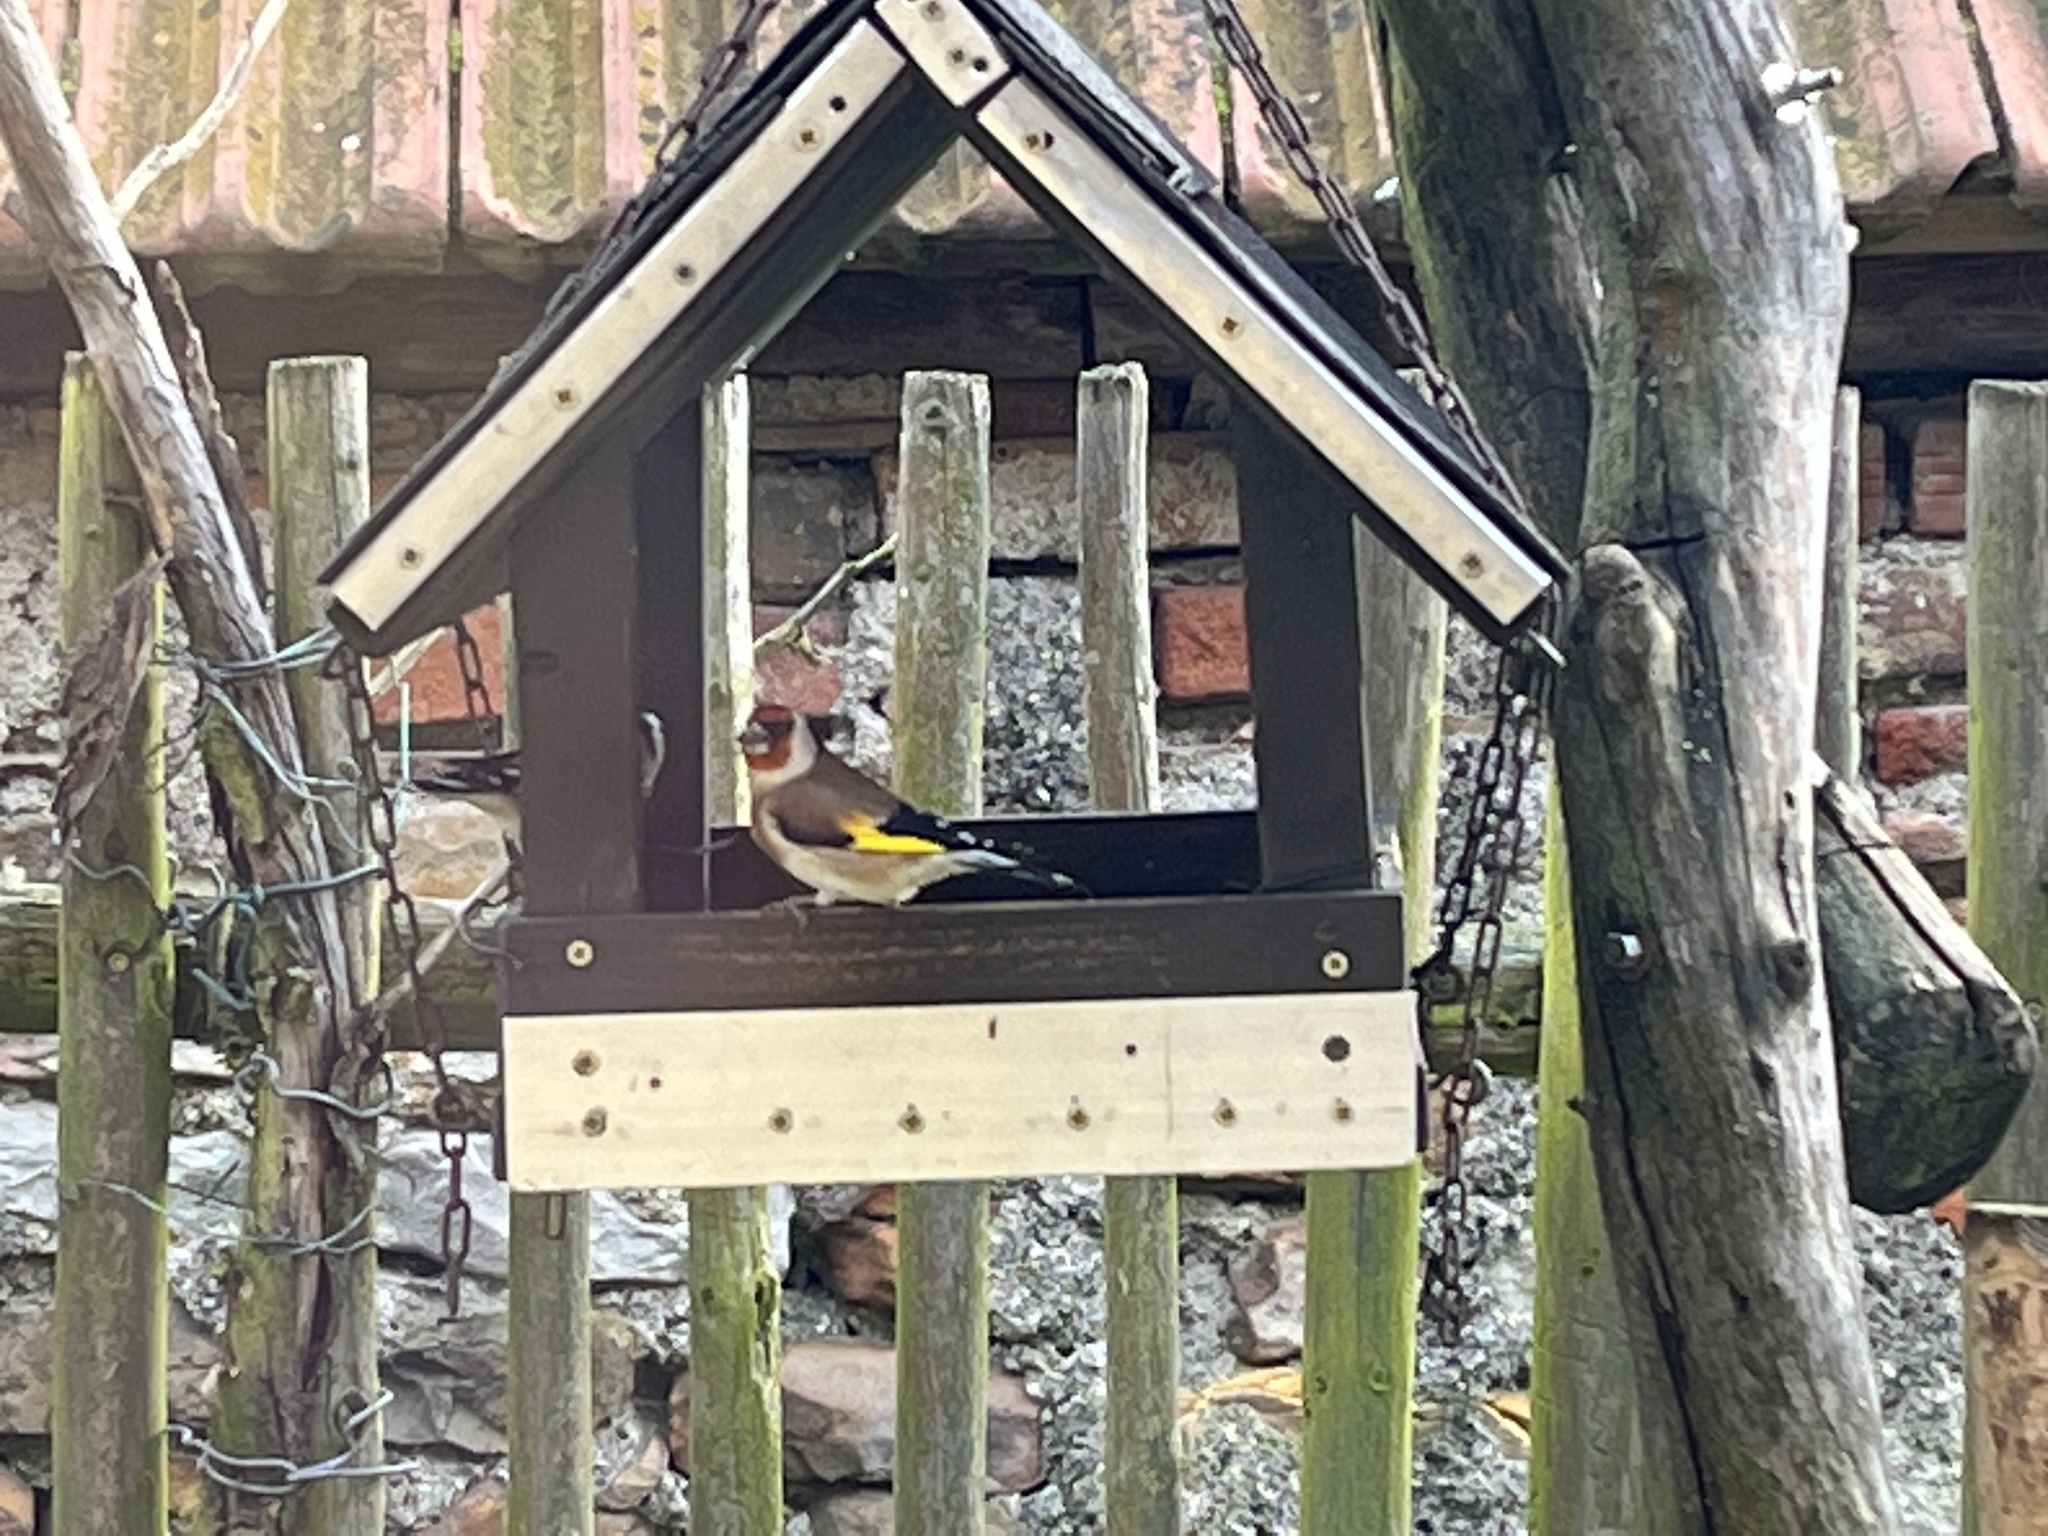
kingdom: Animalia
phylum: Chordata
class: Aves
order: Passeriformes
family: Fringillidae
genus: Carduelis
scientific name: Carduelis carduelis
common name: European goldfinch
